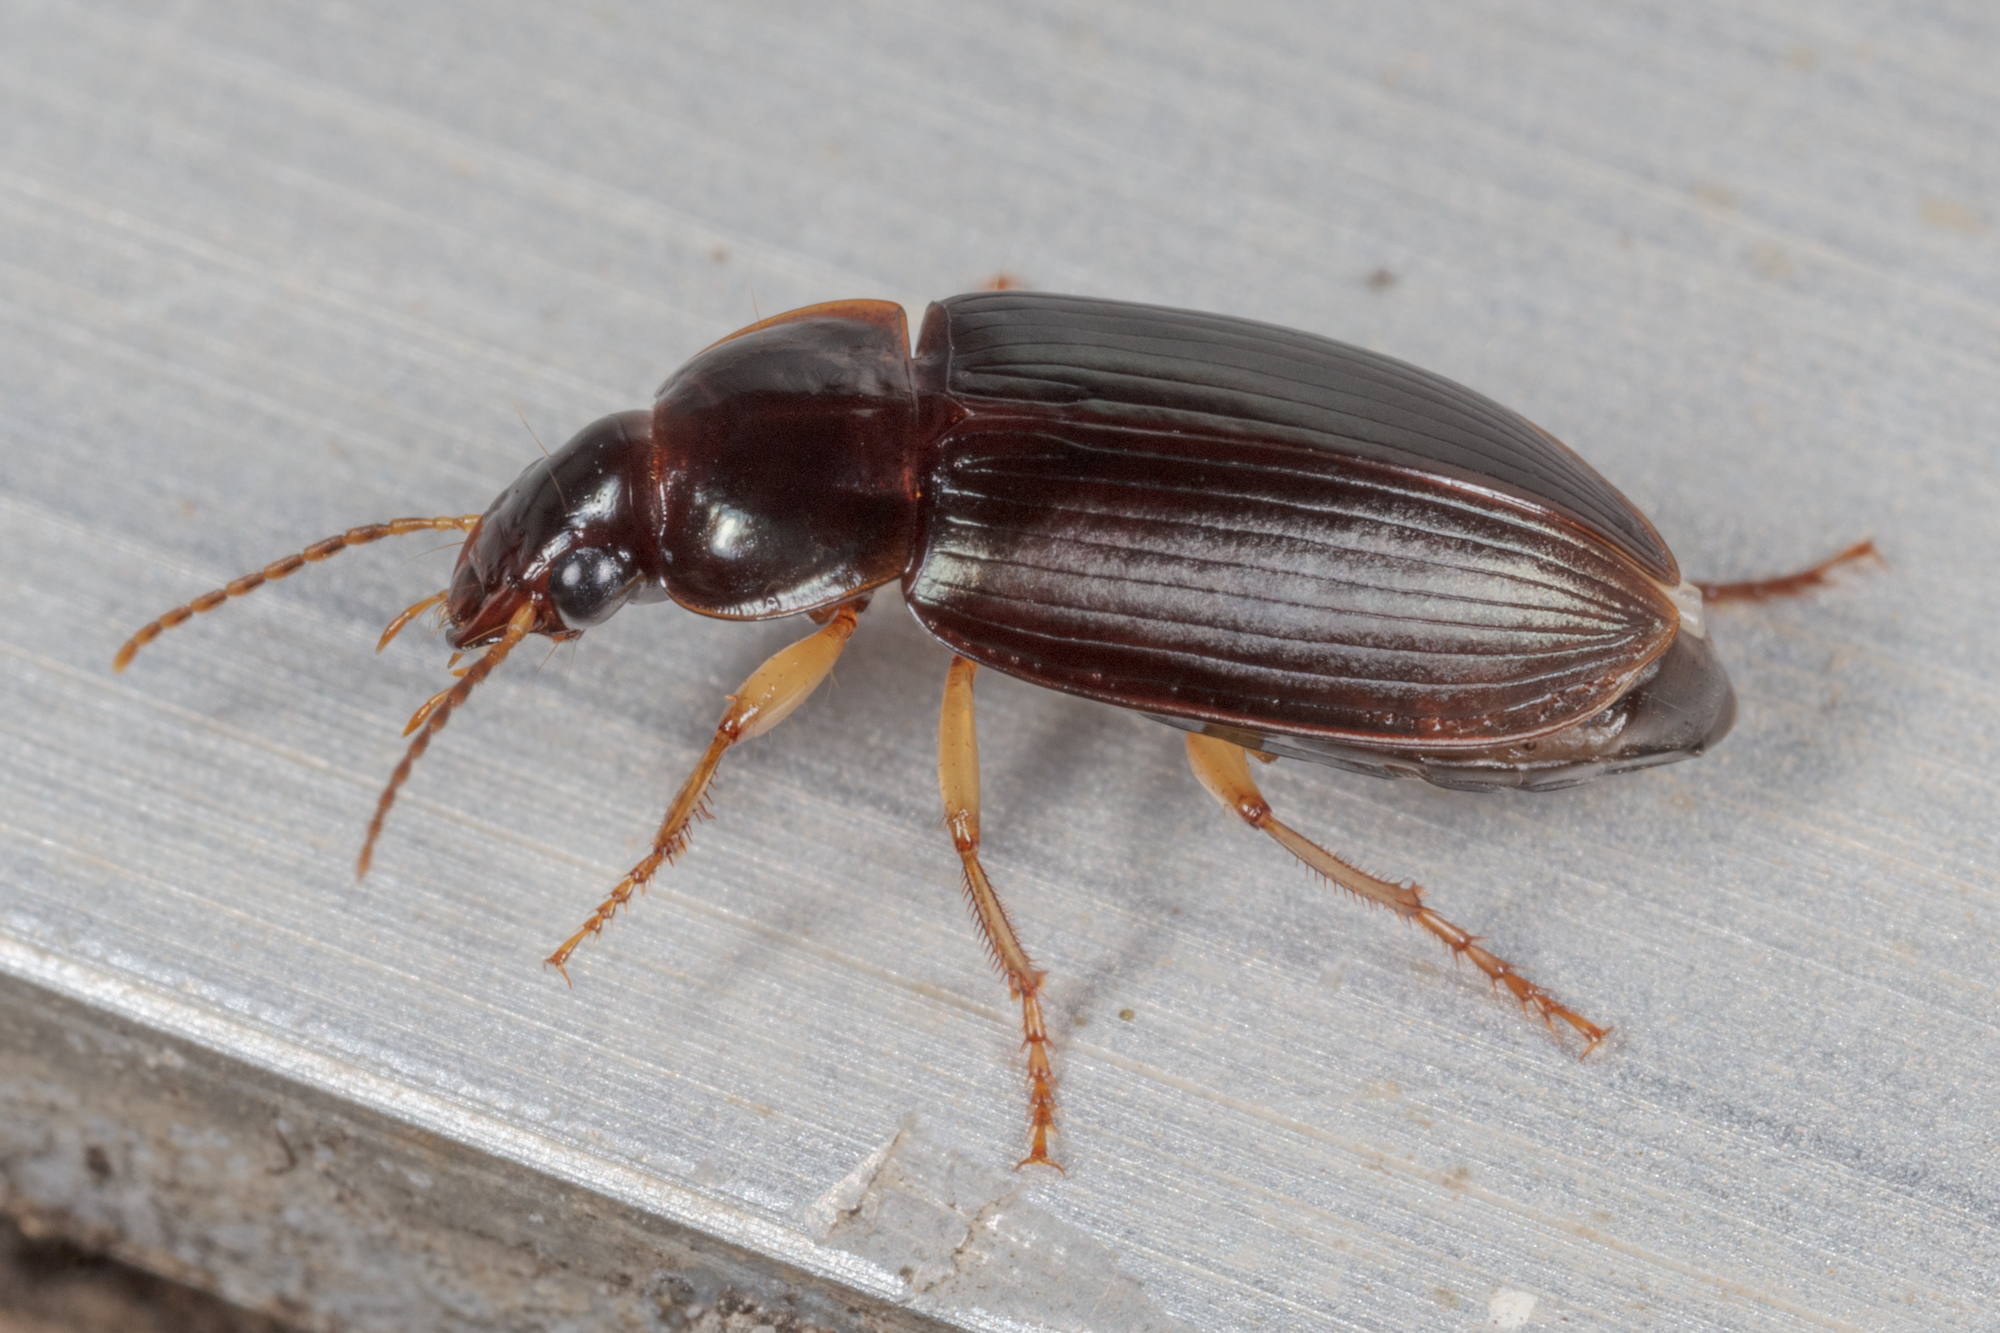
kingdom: Animalia
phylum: Arthropoda
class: Insecta
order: Coleoptera
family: Carabidae
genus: Notiobia
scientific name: Notiobia terminata
